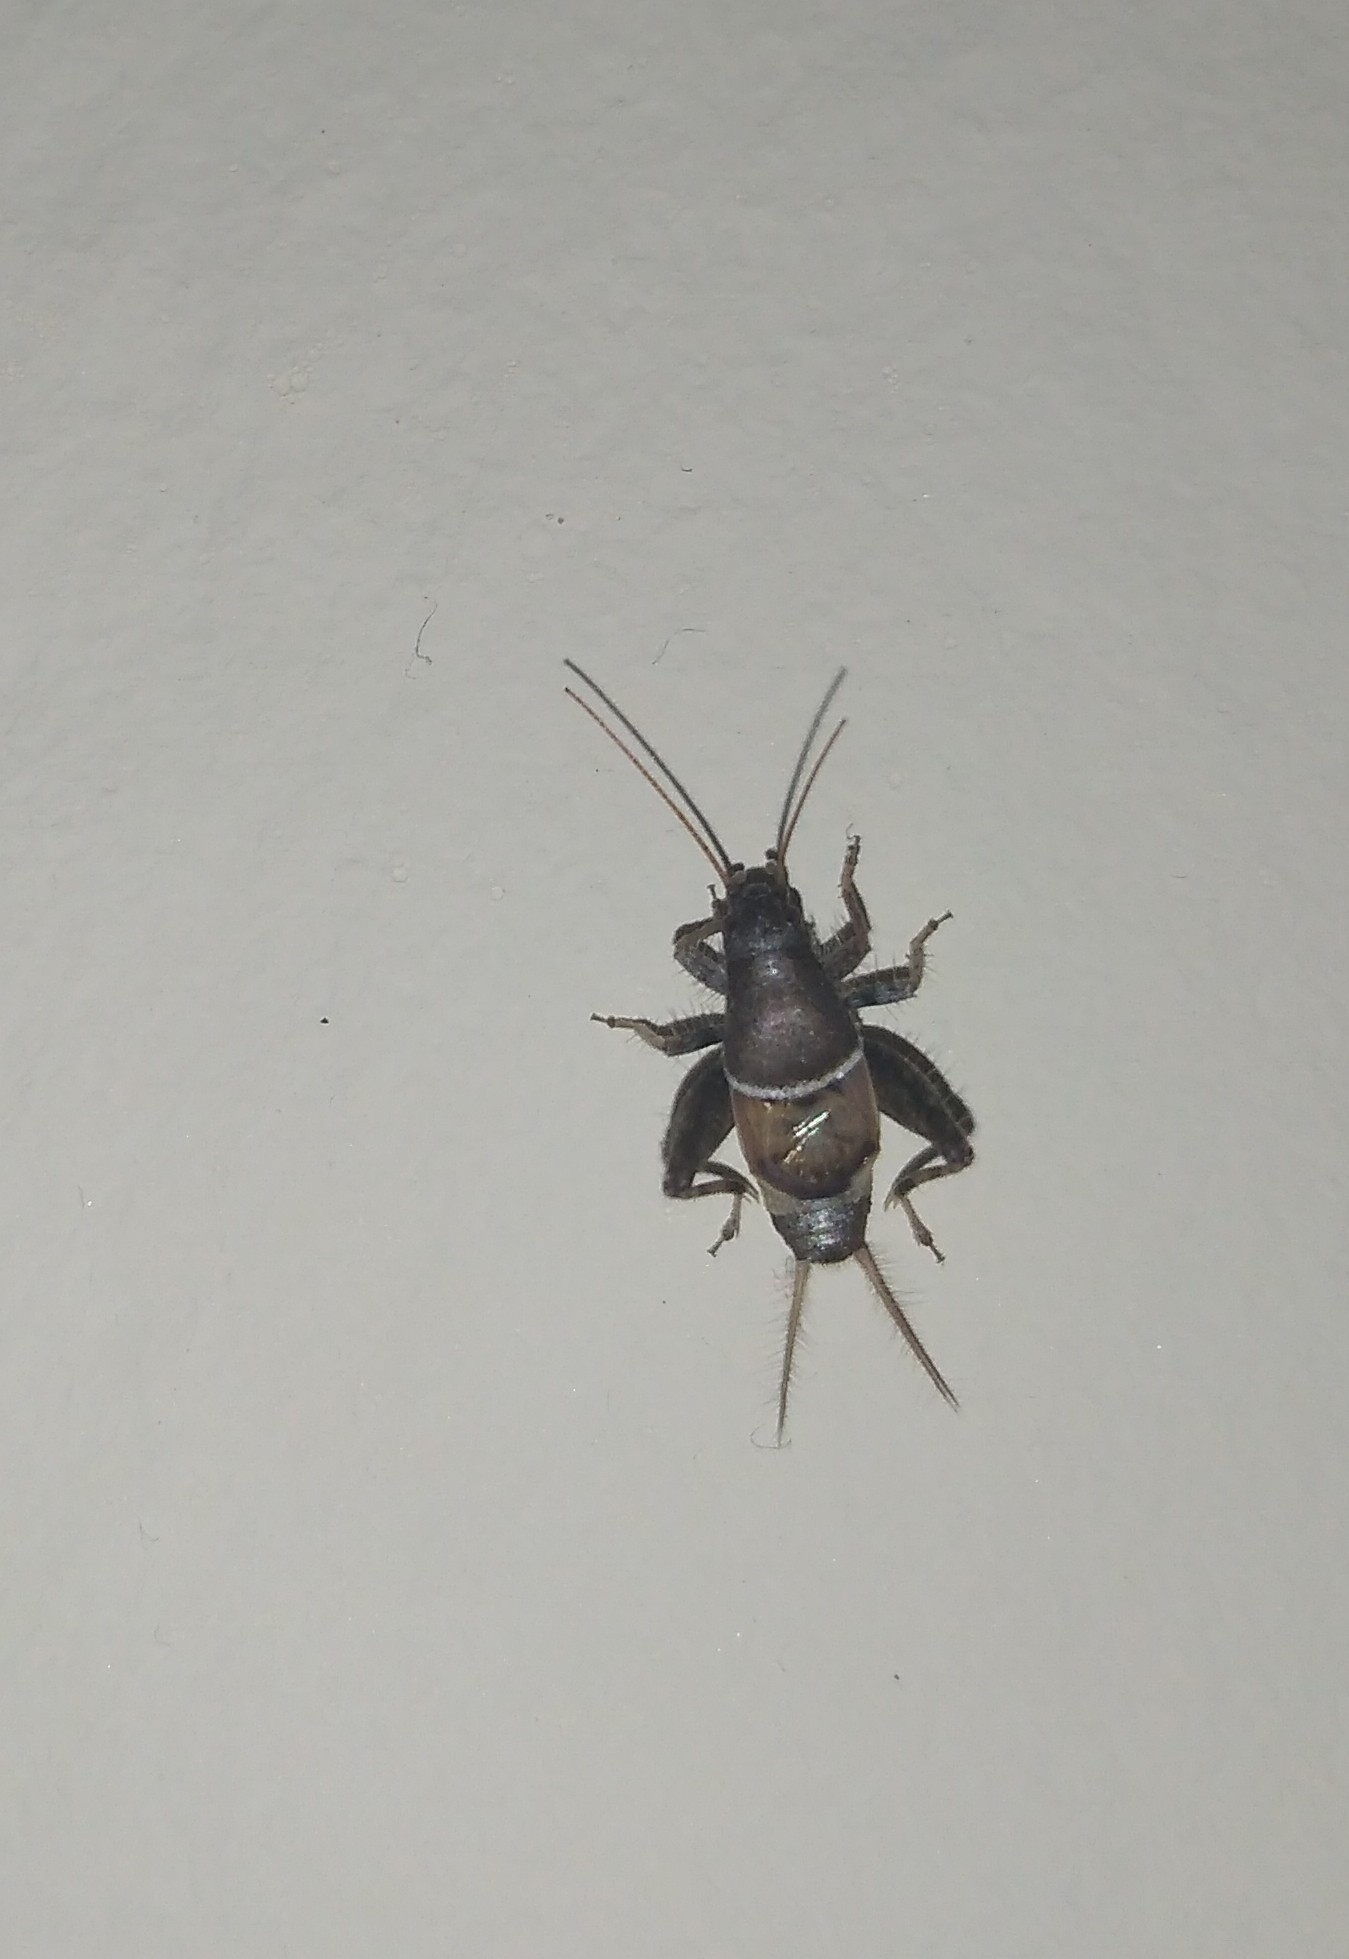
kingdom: Animalia
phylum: Arthropoda
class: Insecta
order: Orthoptera
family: Mogoplistidae
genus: Ornebius
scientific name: Ornebius alatus
